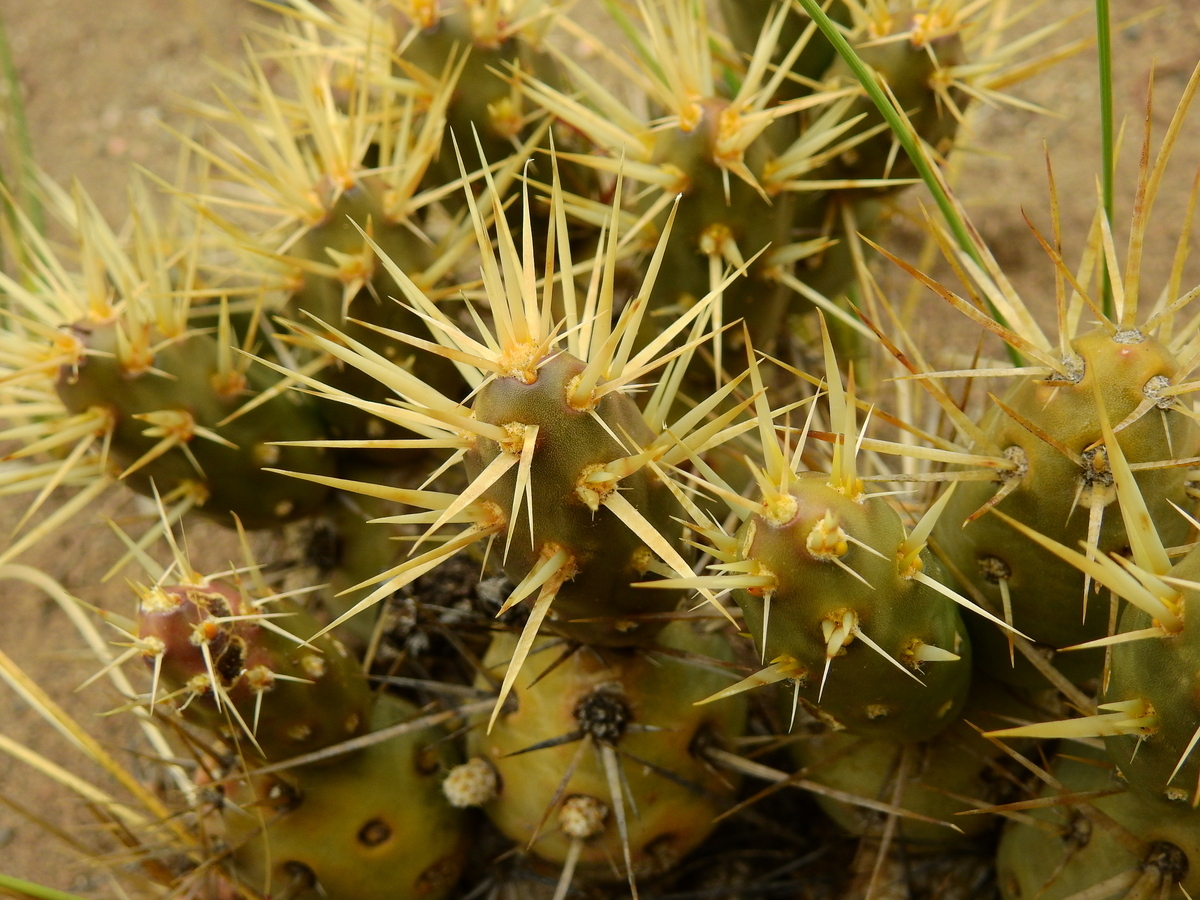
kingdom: Plantae
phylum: Tracheophyta
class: Magnoliopsida
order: Caryophyllales
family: Cactaceae
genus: Maihueniopsis
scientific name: Maihueniopsis ovata
